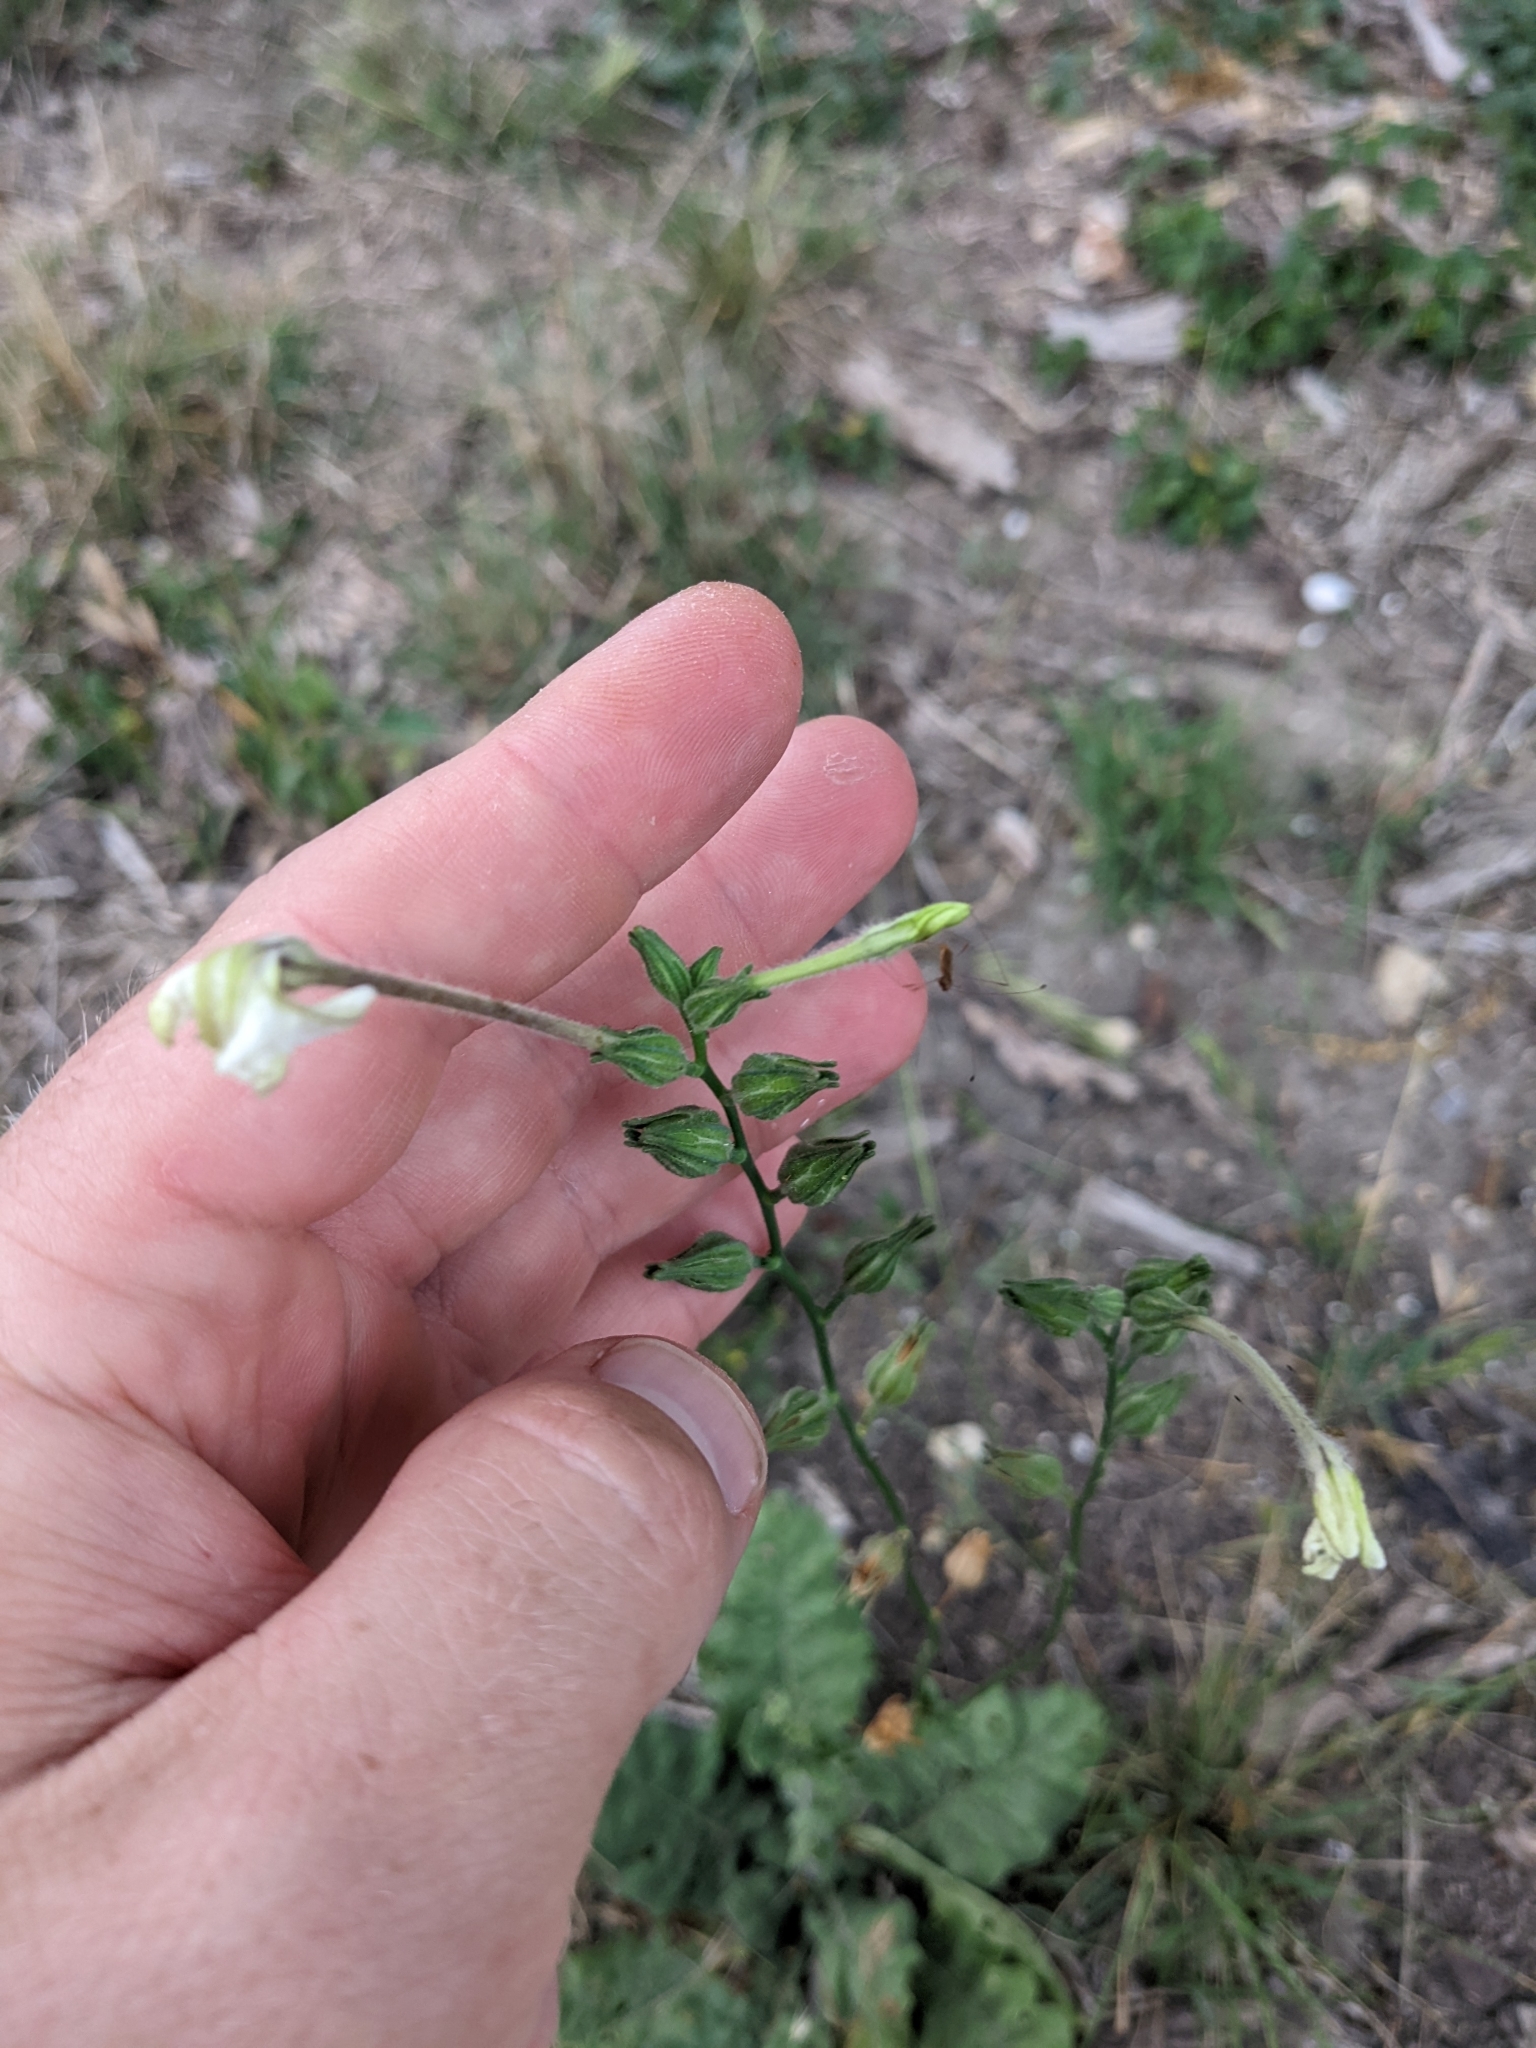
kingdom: Plantae
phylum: Tracheophyta
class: Magnoliopsida
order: Solanales
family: Solanaceae
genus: Nicotiana
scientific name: Nicotiana repanda
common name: Fiddle-leaf tobacco
